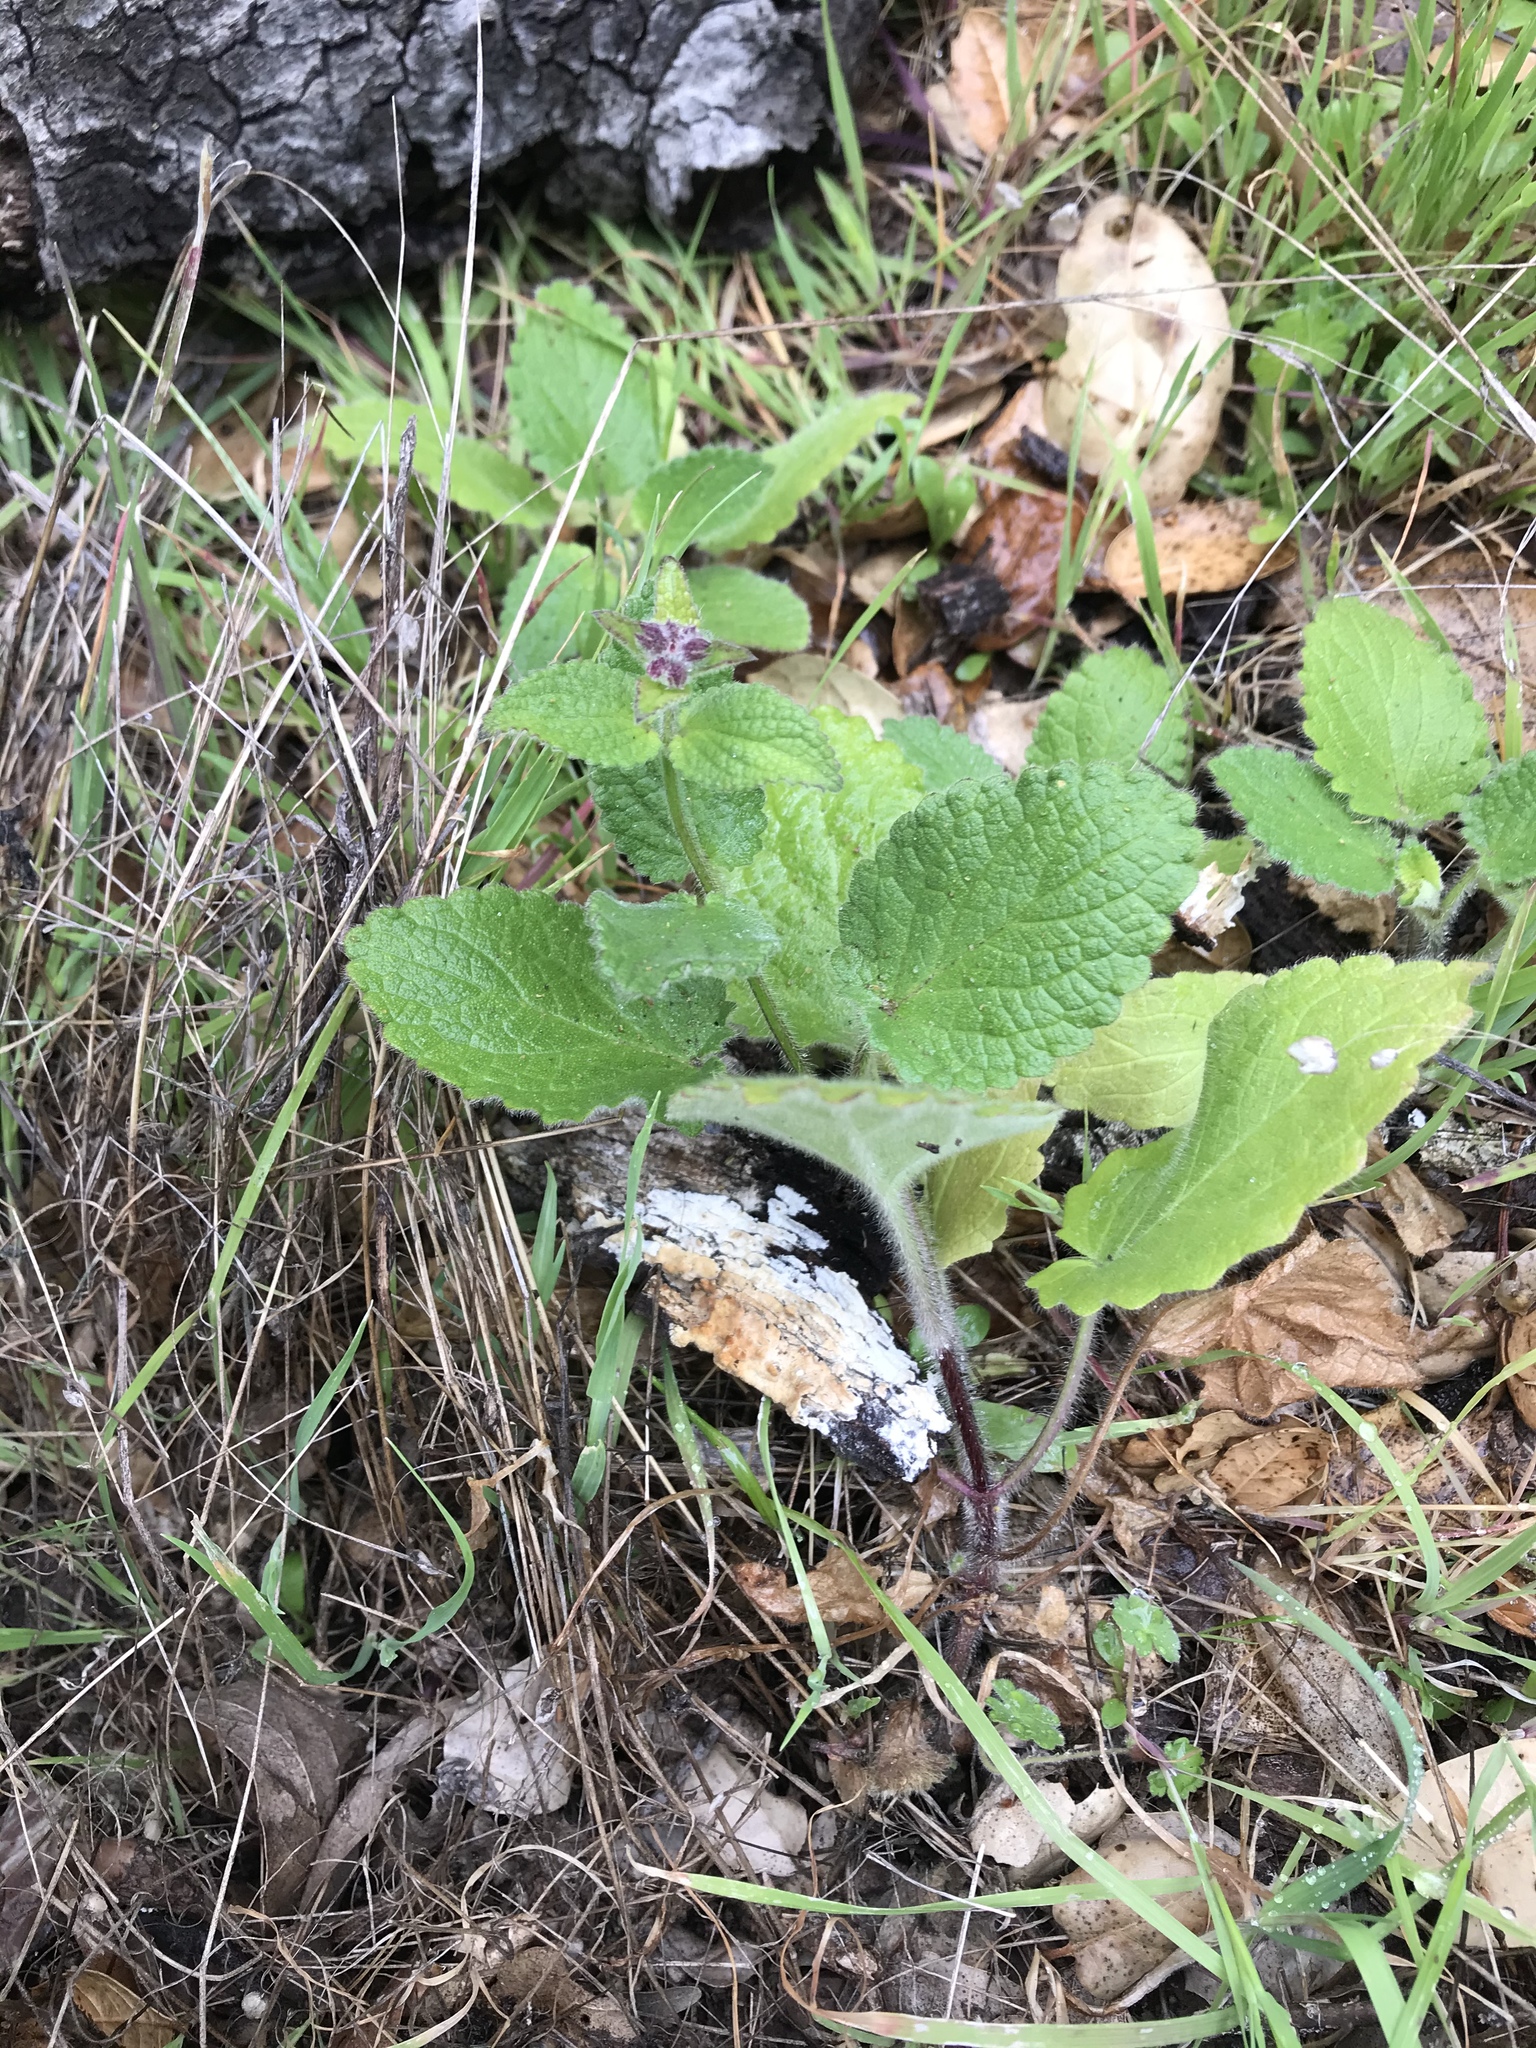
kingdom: Plantae
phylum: Tracheophyta
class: Magnoliopsida
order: Lamiales
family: Lamiaceae
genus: Stachys
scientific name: Stachys
